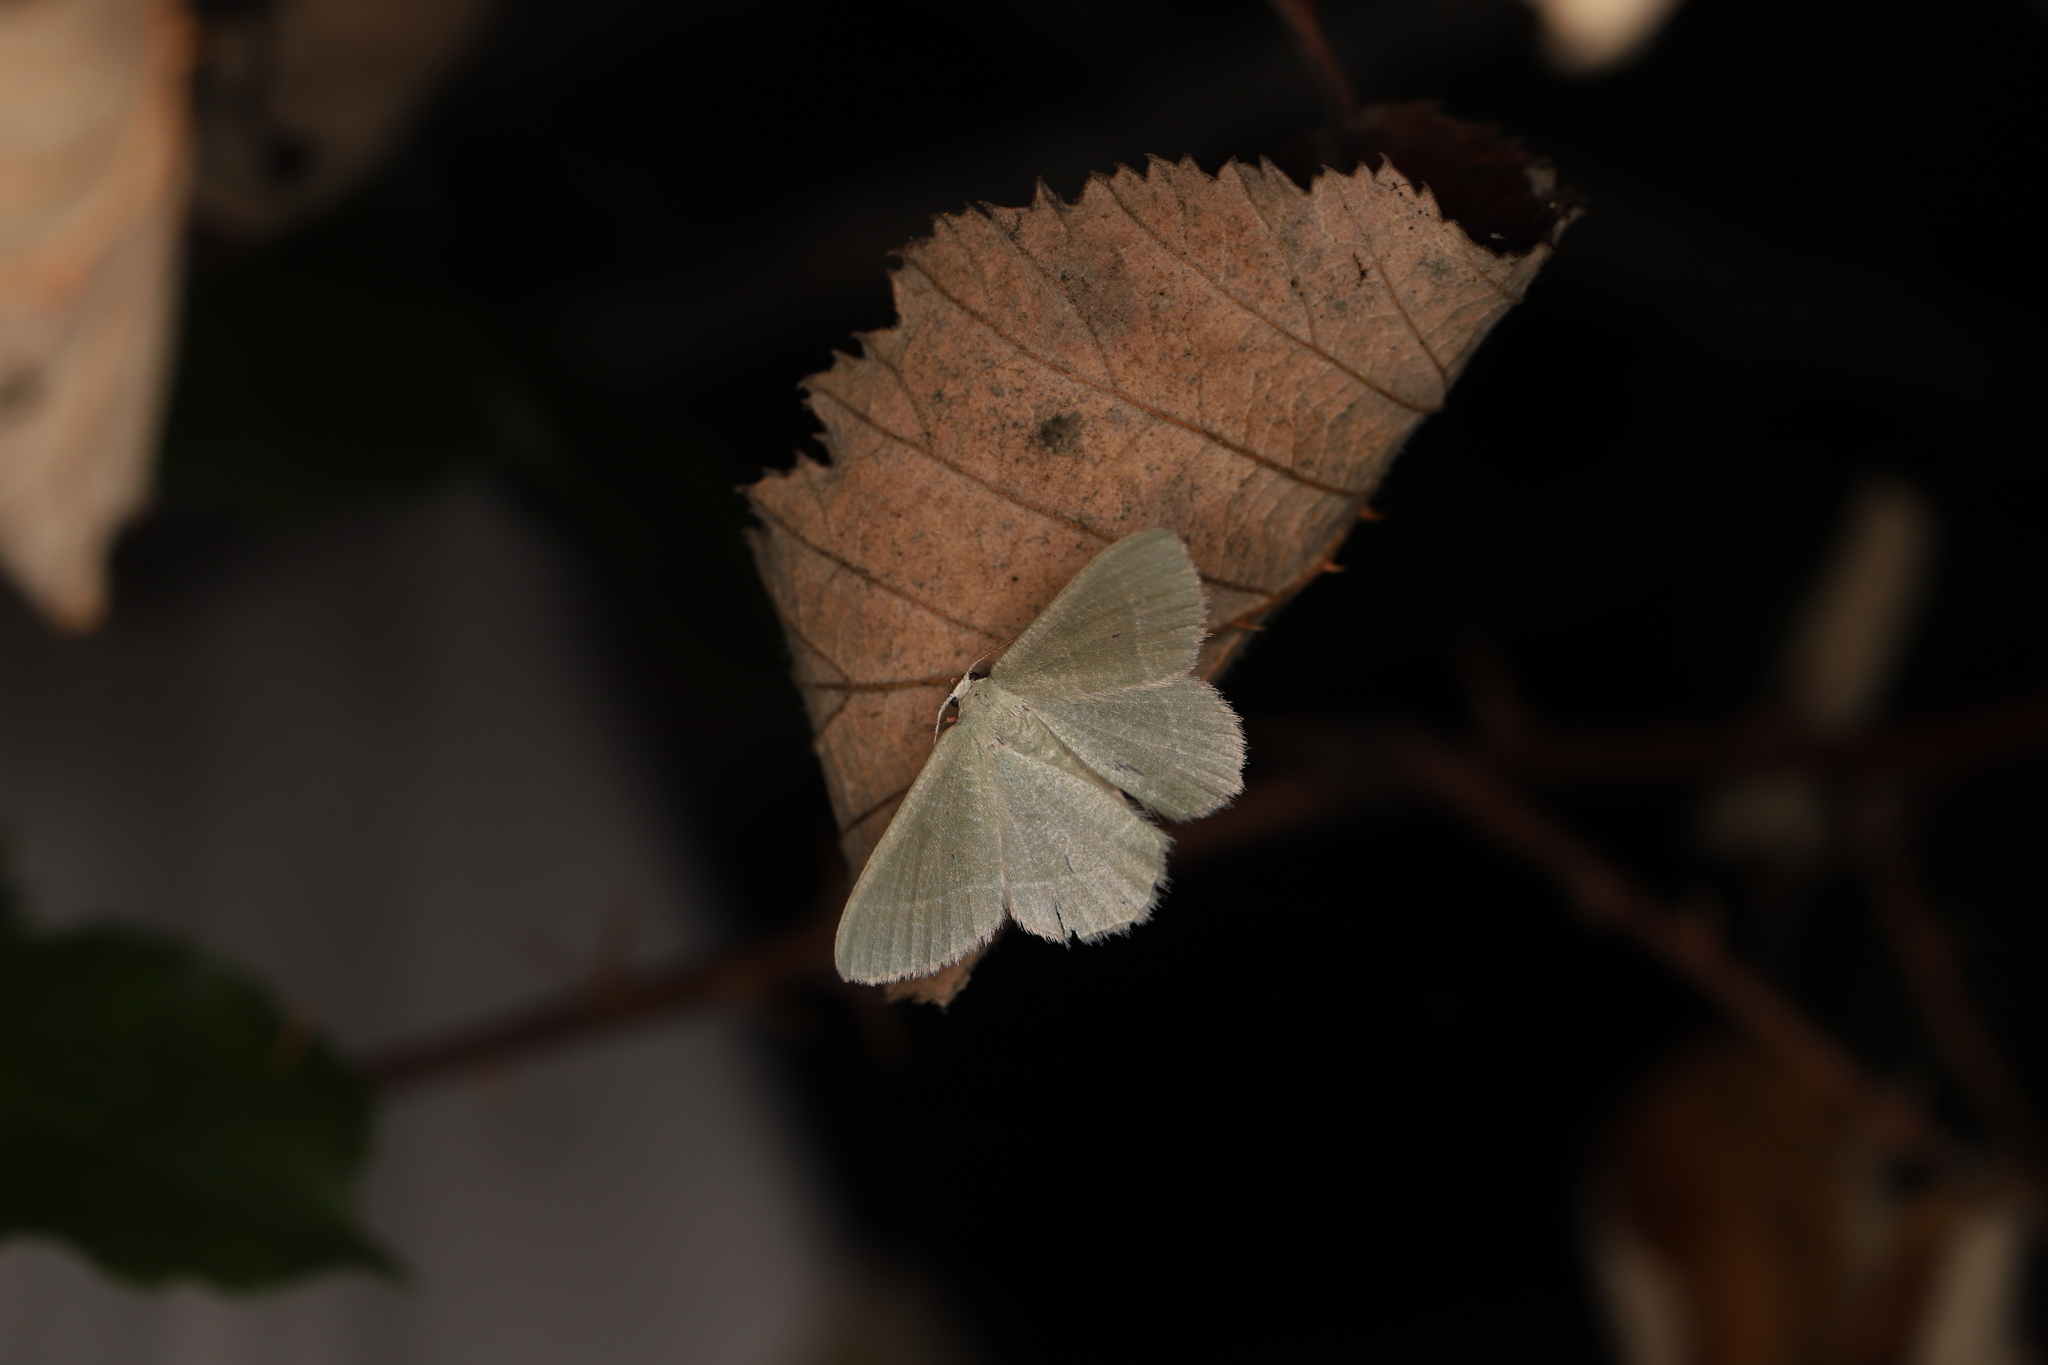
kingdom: Animalia
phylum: Arthropoda
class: Insecta
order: Lepidoptera
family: Geometridae
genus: Chlorissa
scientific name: Chlorissa etruscaria
